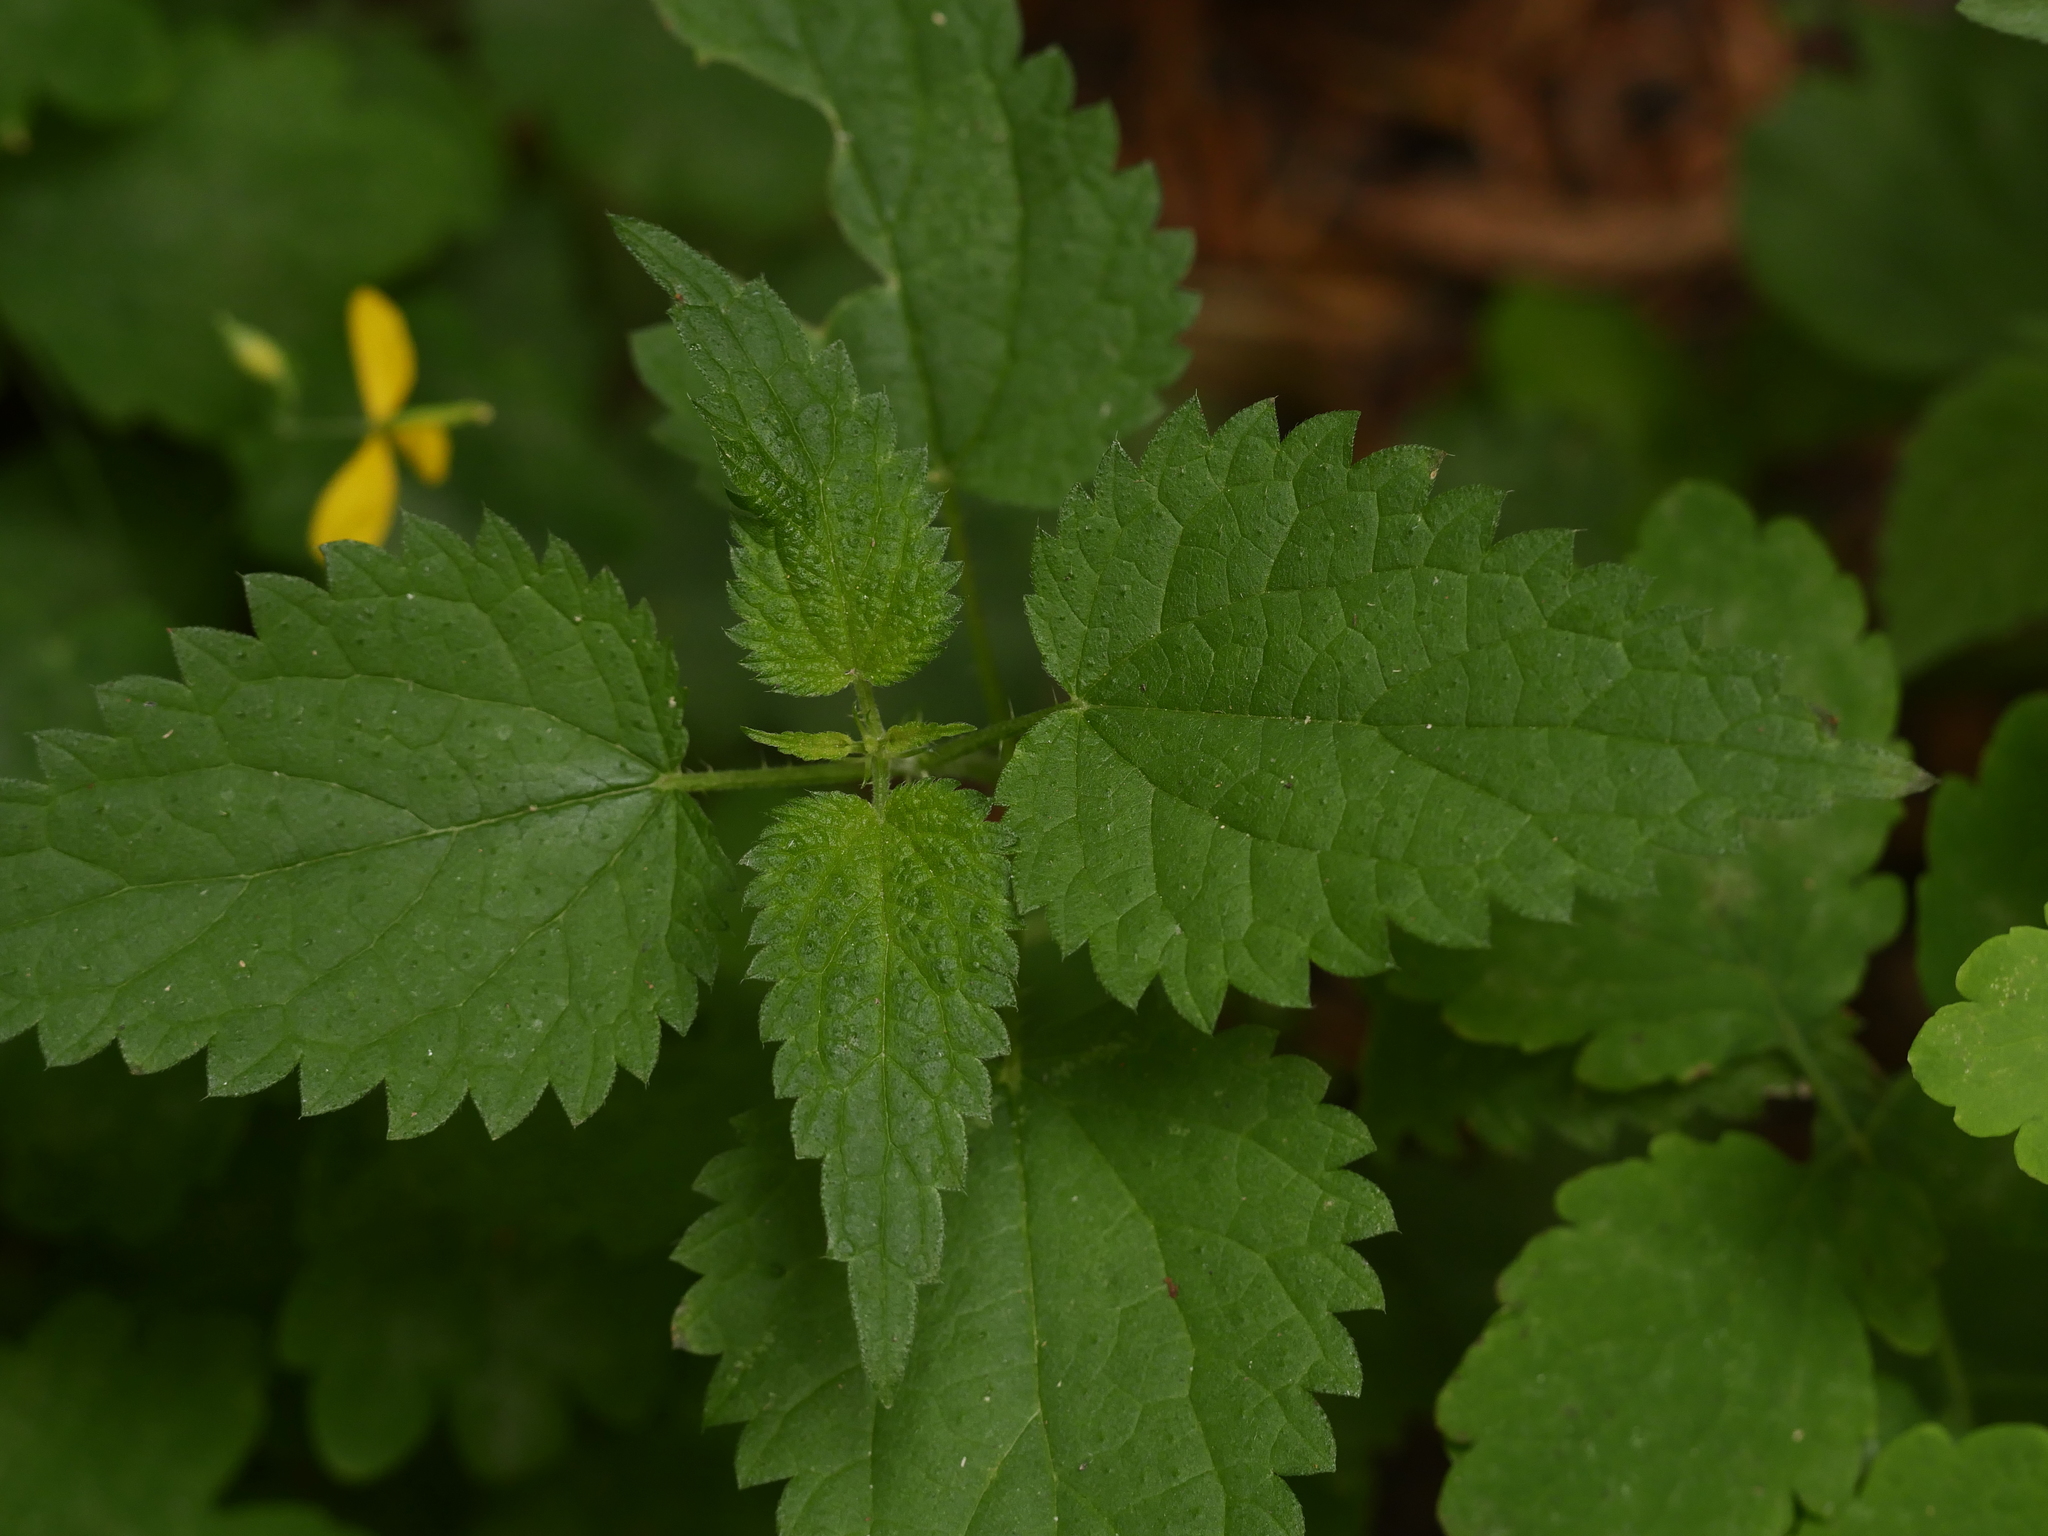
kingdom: Plantae
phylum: Tracheophyta
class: Magnoliopsida
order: Rosales
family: Urticaceae
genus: Urtica
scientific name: Urtica dioica
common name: Common nettle
